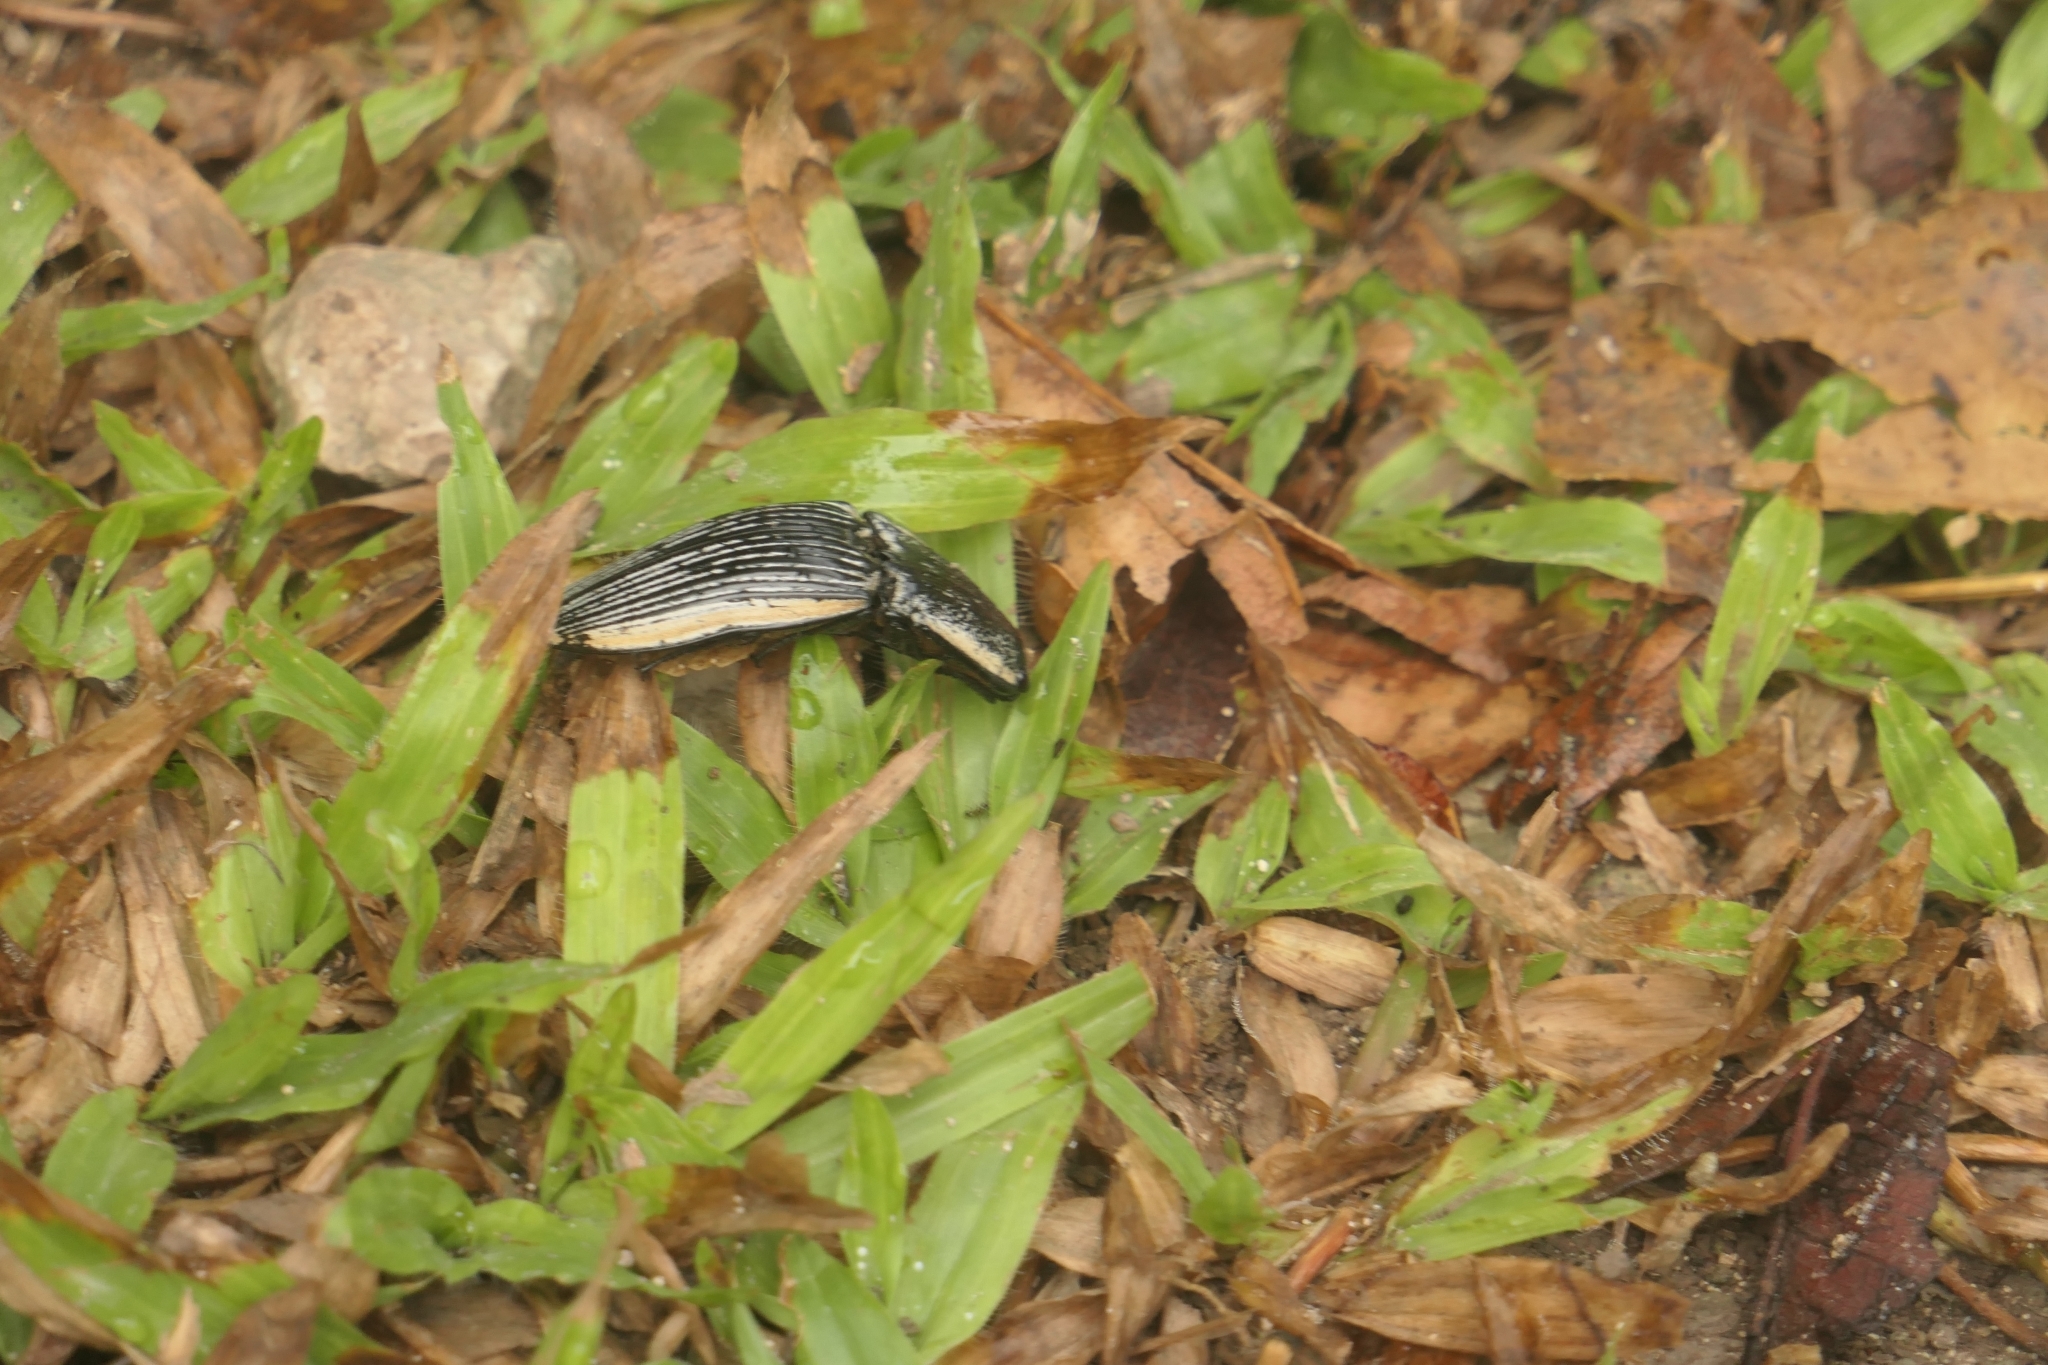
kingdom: Animalia
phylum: Arthropoda
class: Insecta
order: Coleoptera
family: Elateridae
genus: Chalcolepidius
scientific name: Chalcolepidius
